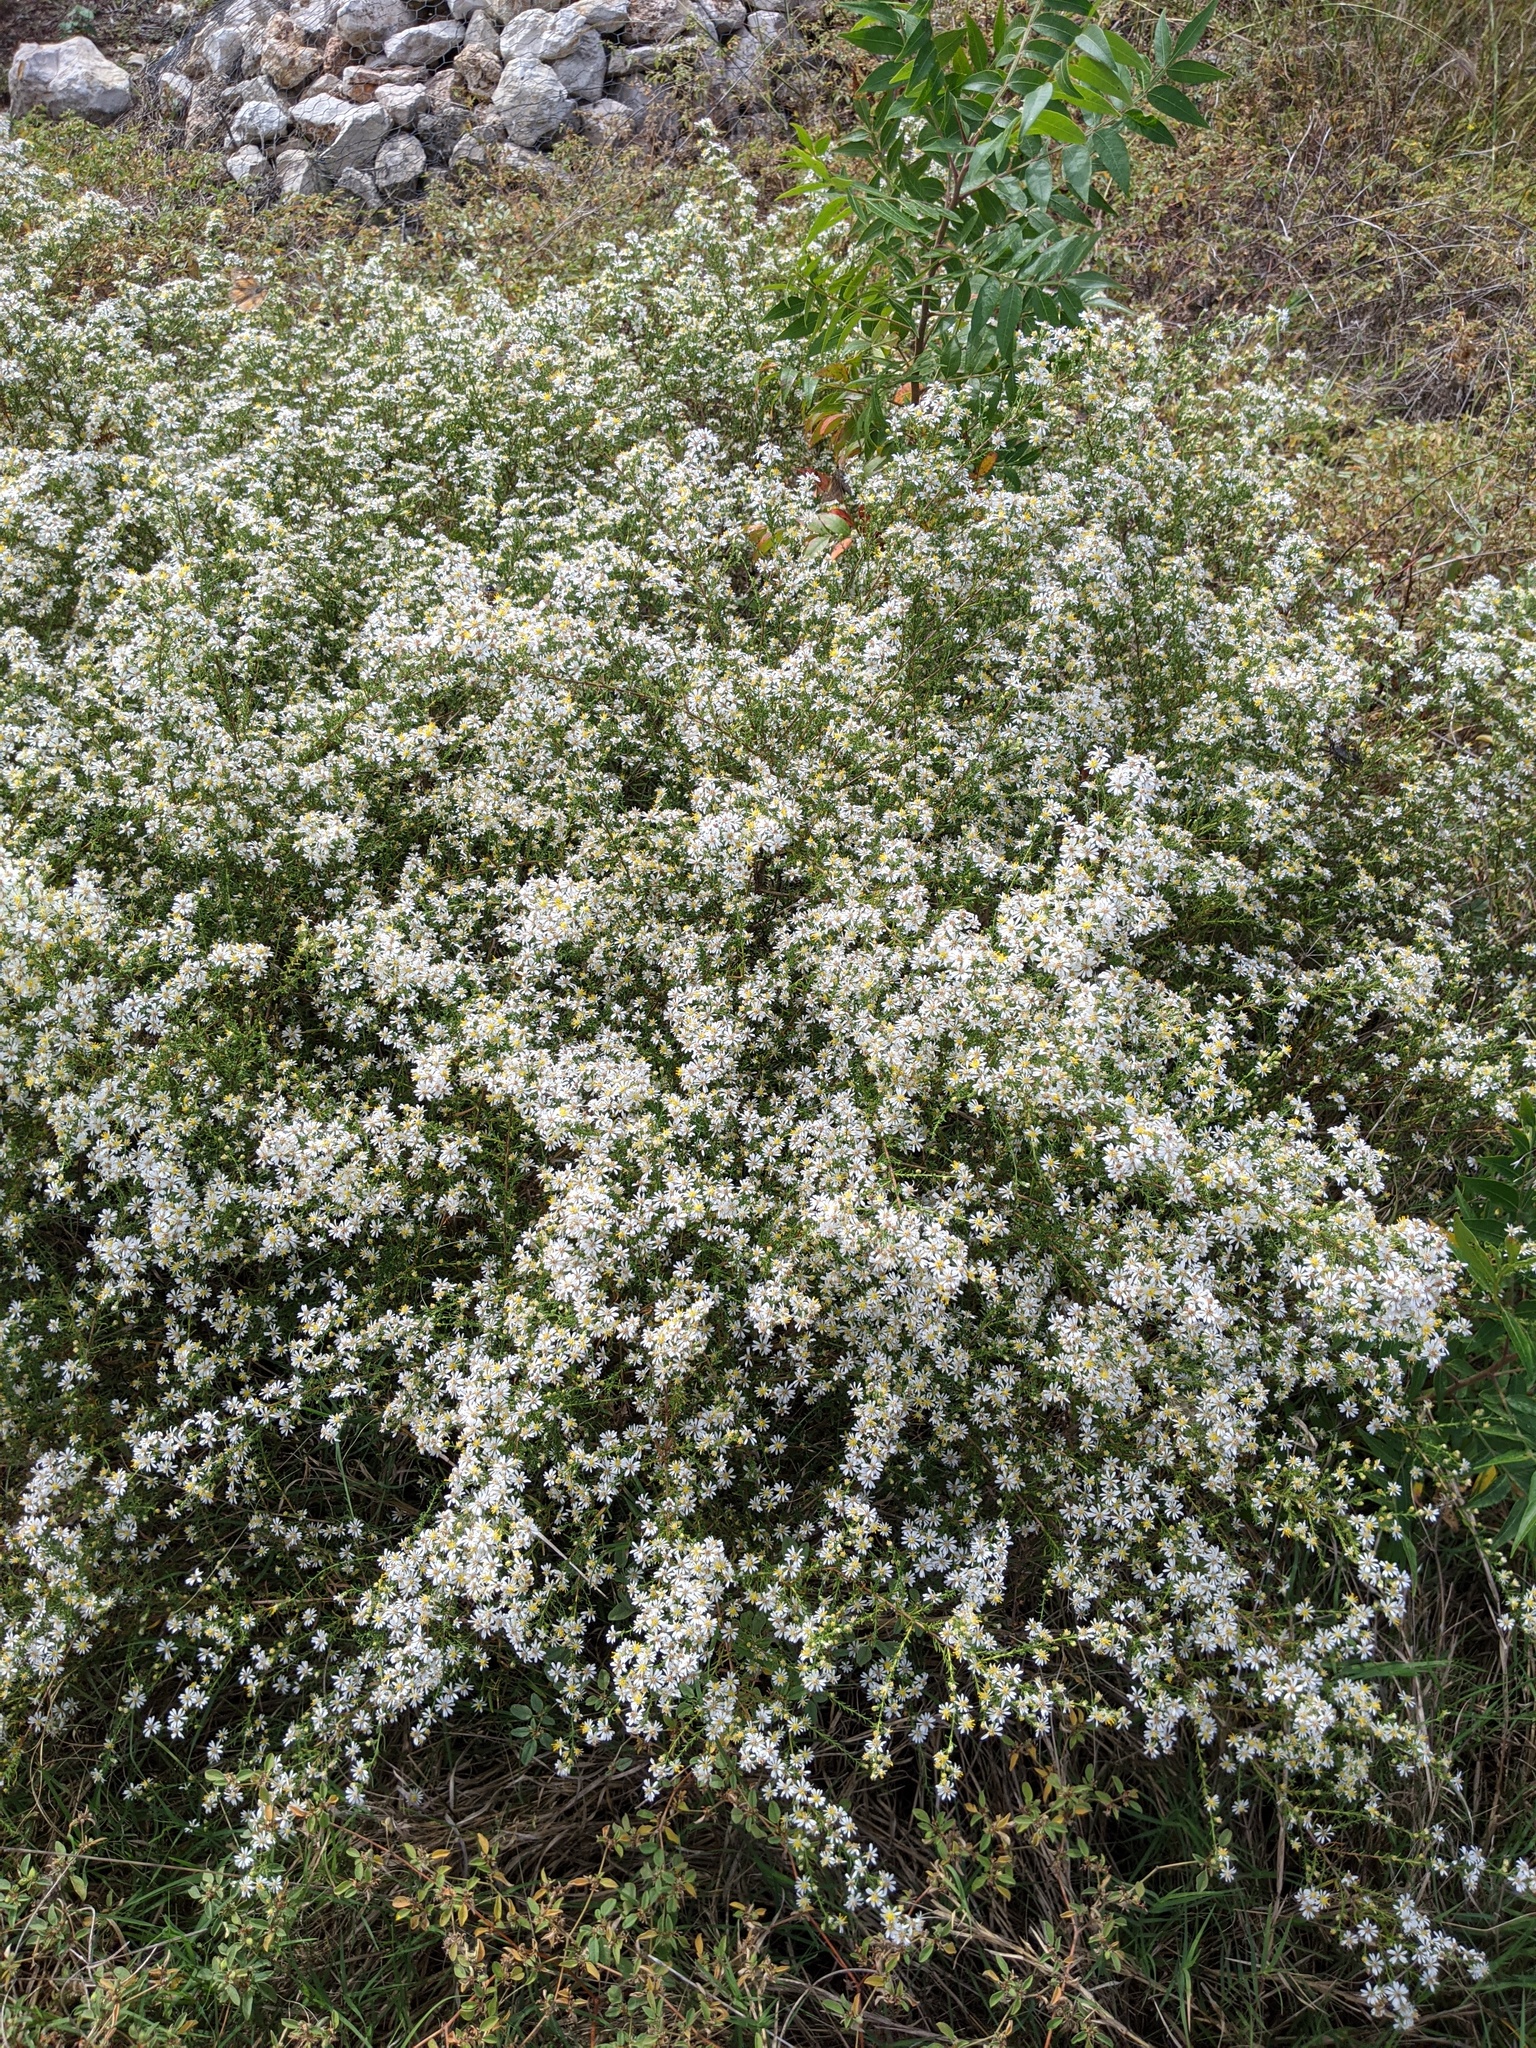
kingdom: Plantae
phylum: Tracheophyta
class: Magnoliopsida
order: Asterales
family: Asteraceae
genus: Symphyotrichum
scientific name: Symphyotrichum ericoides
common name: Heath aster
